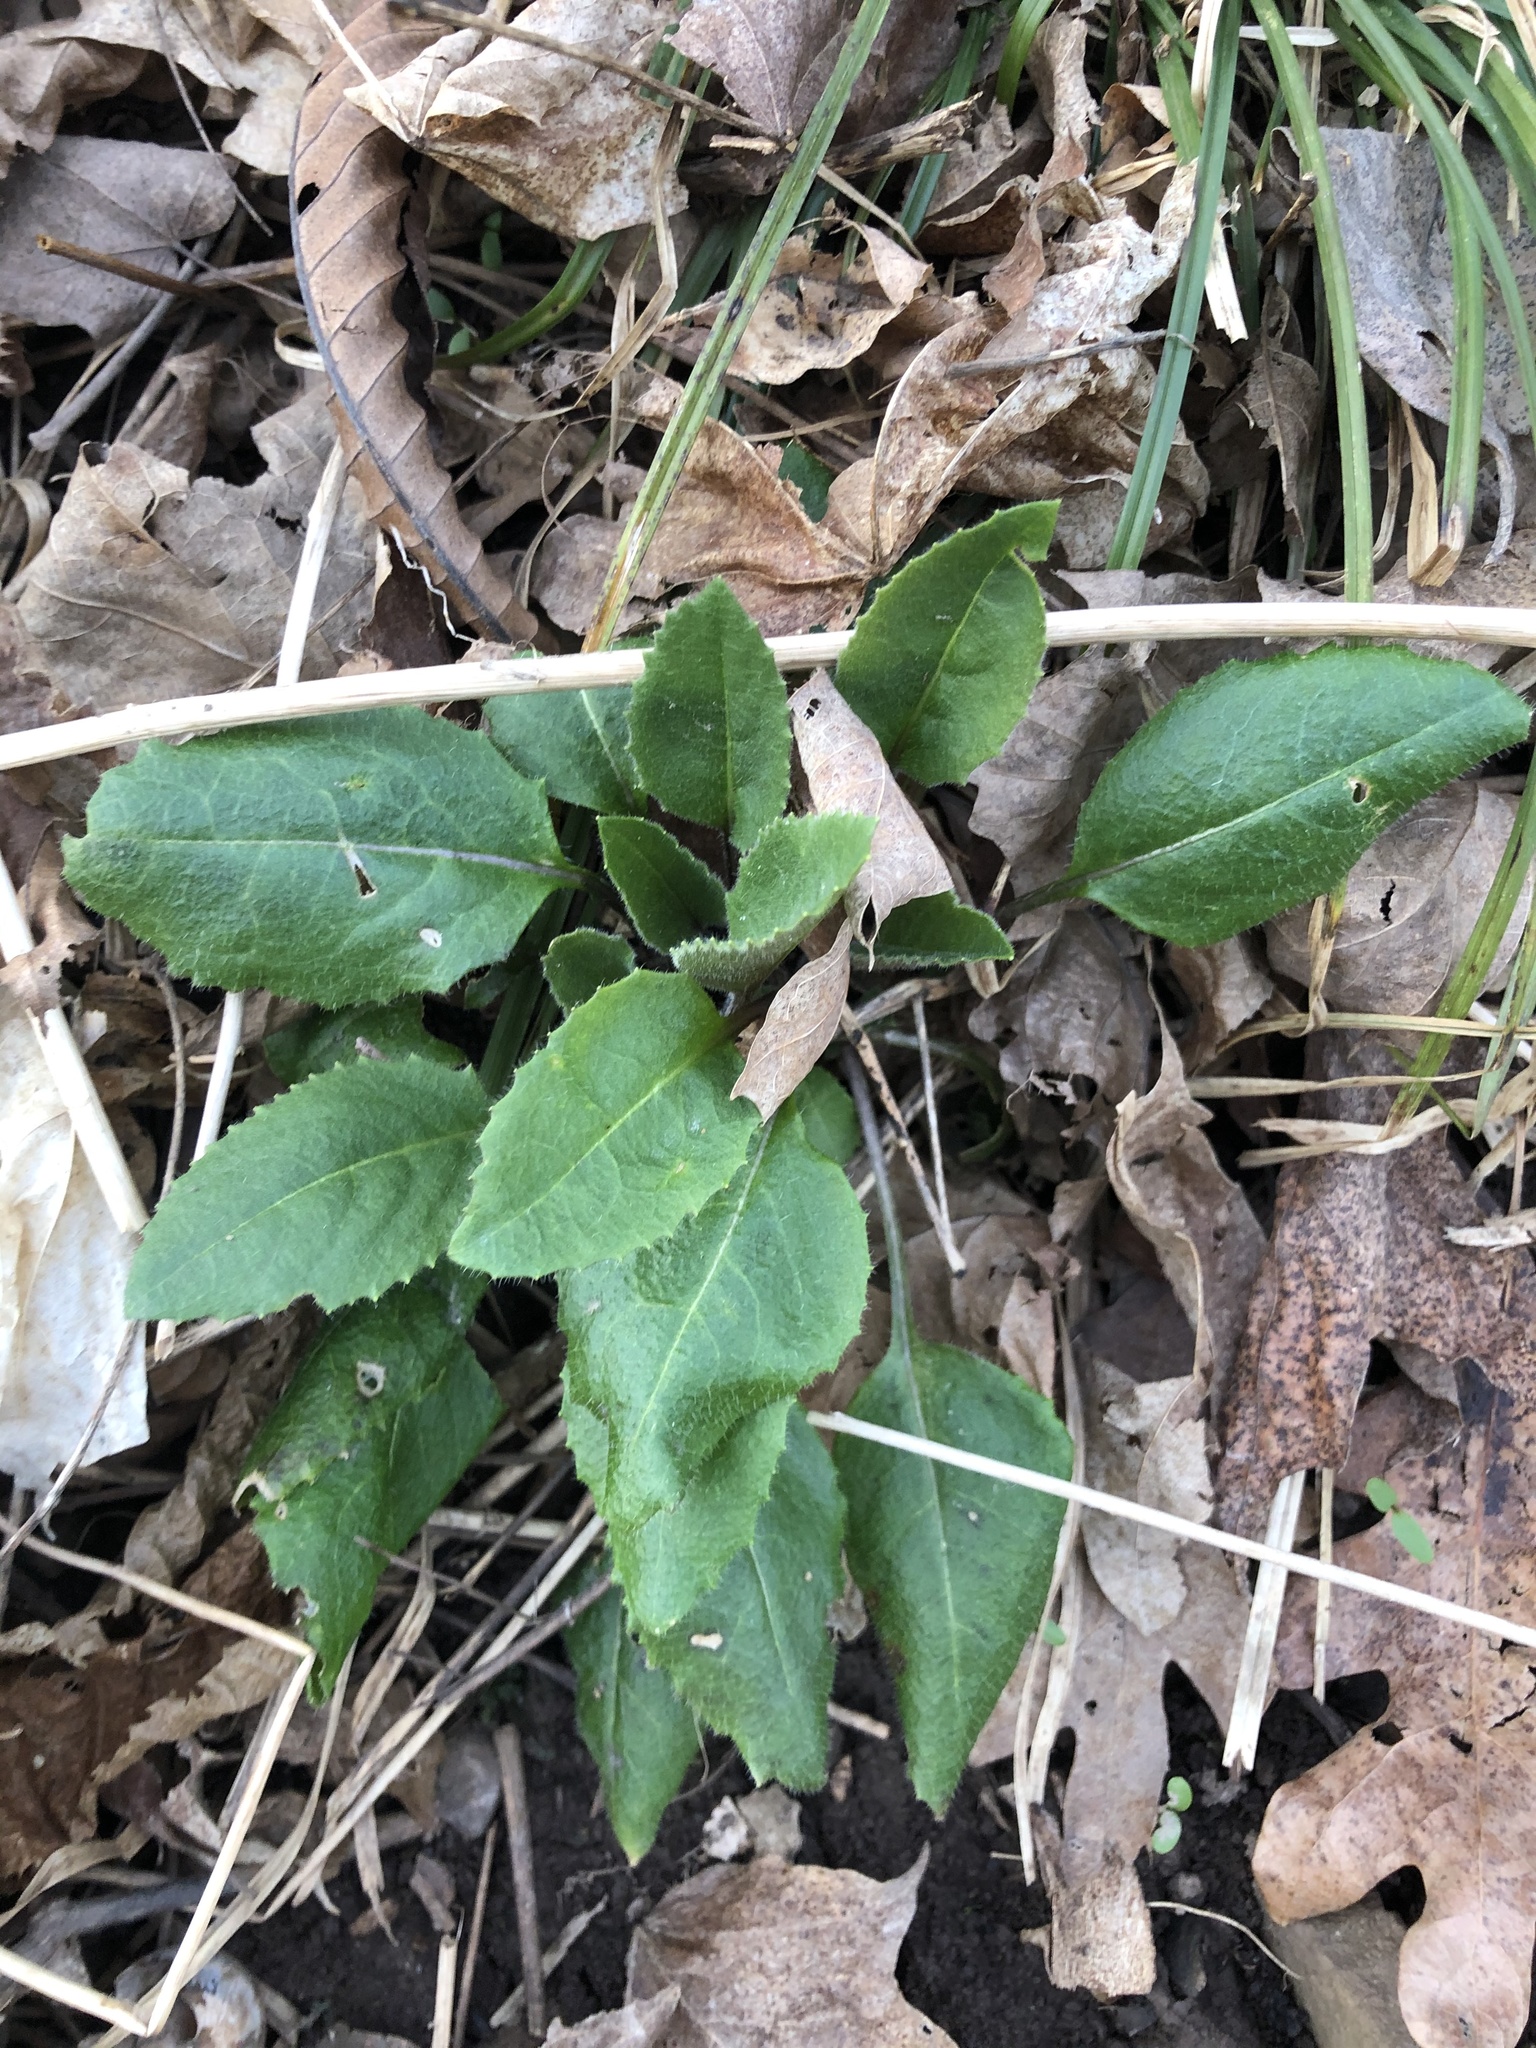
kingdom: Plantae
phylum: Tracheophyta
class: Magnoliopsida
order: Brassicales
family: Brassicaceae
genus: Hesperis
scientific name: Hesperis matronalis
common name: Dame's-violet
